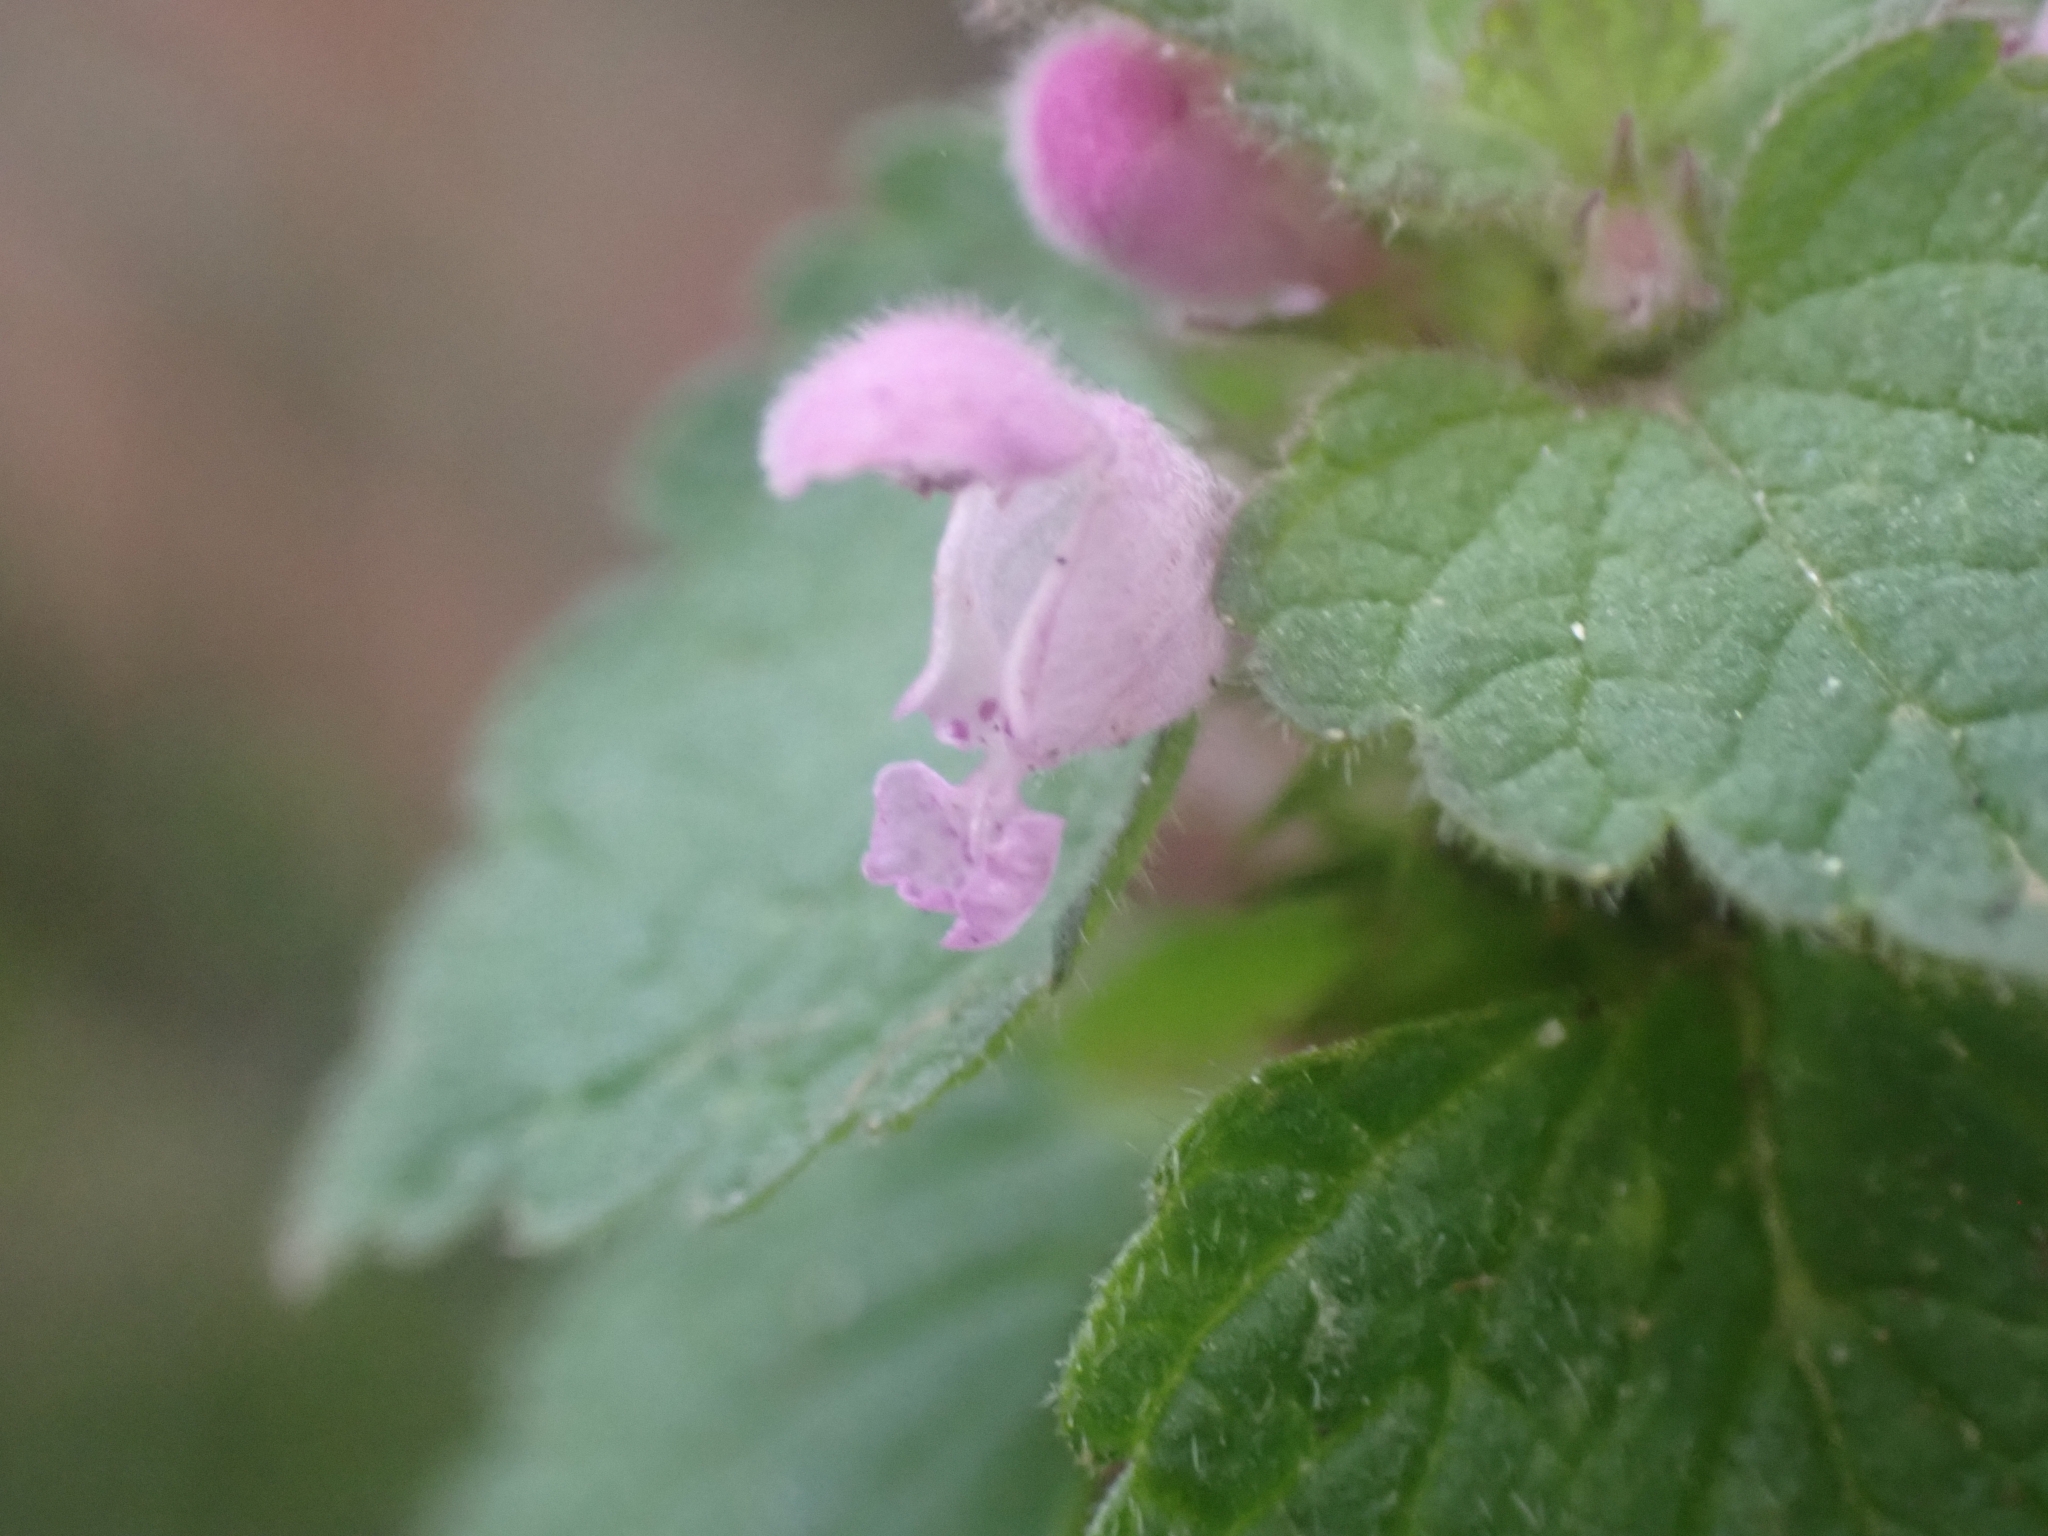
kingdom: Plantae
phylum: Tracheophyta
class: Magnoliopsida
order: Lamiales
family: Lamiaceae
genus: Lamium
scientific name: Lamium purpureum
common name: Red dead-nettle
